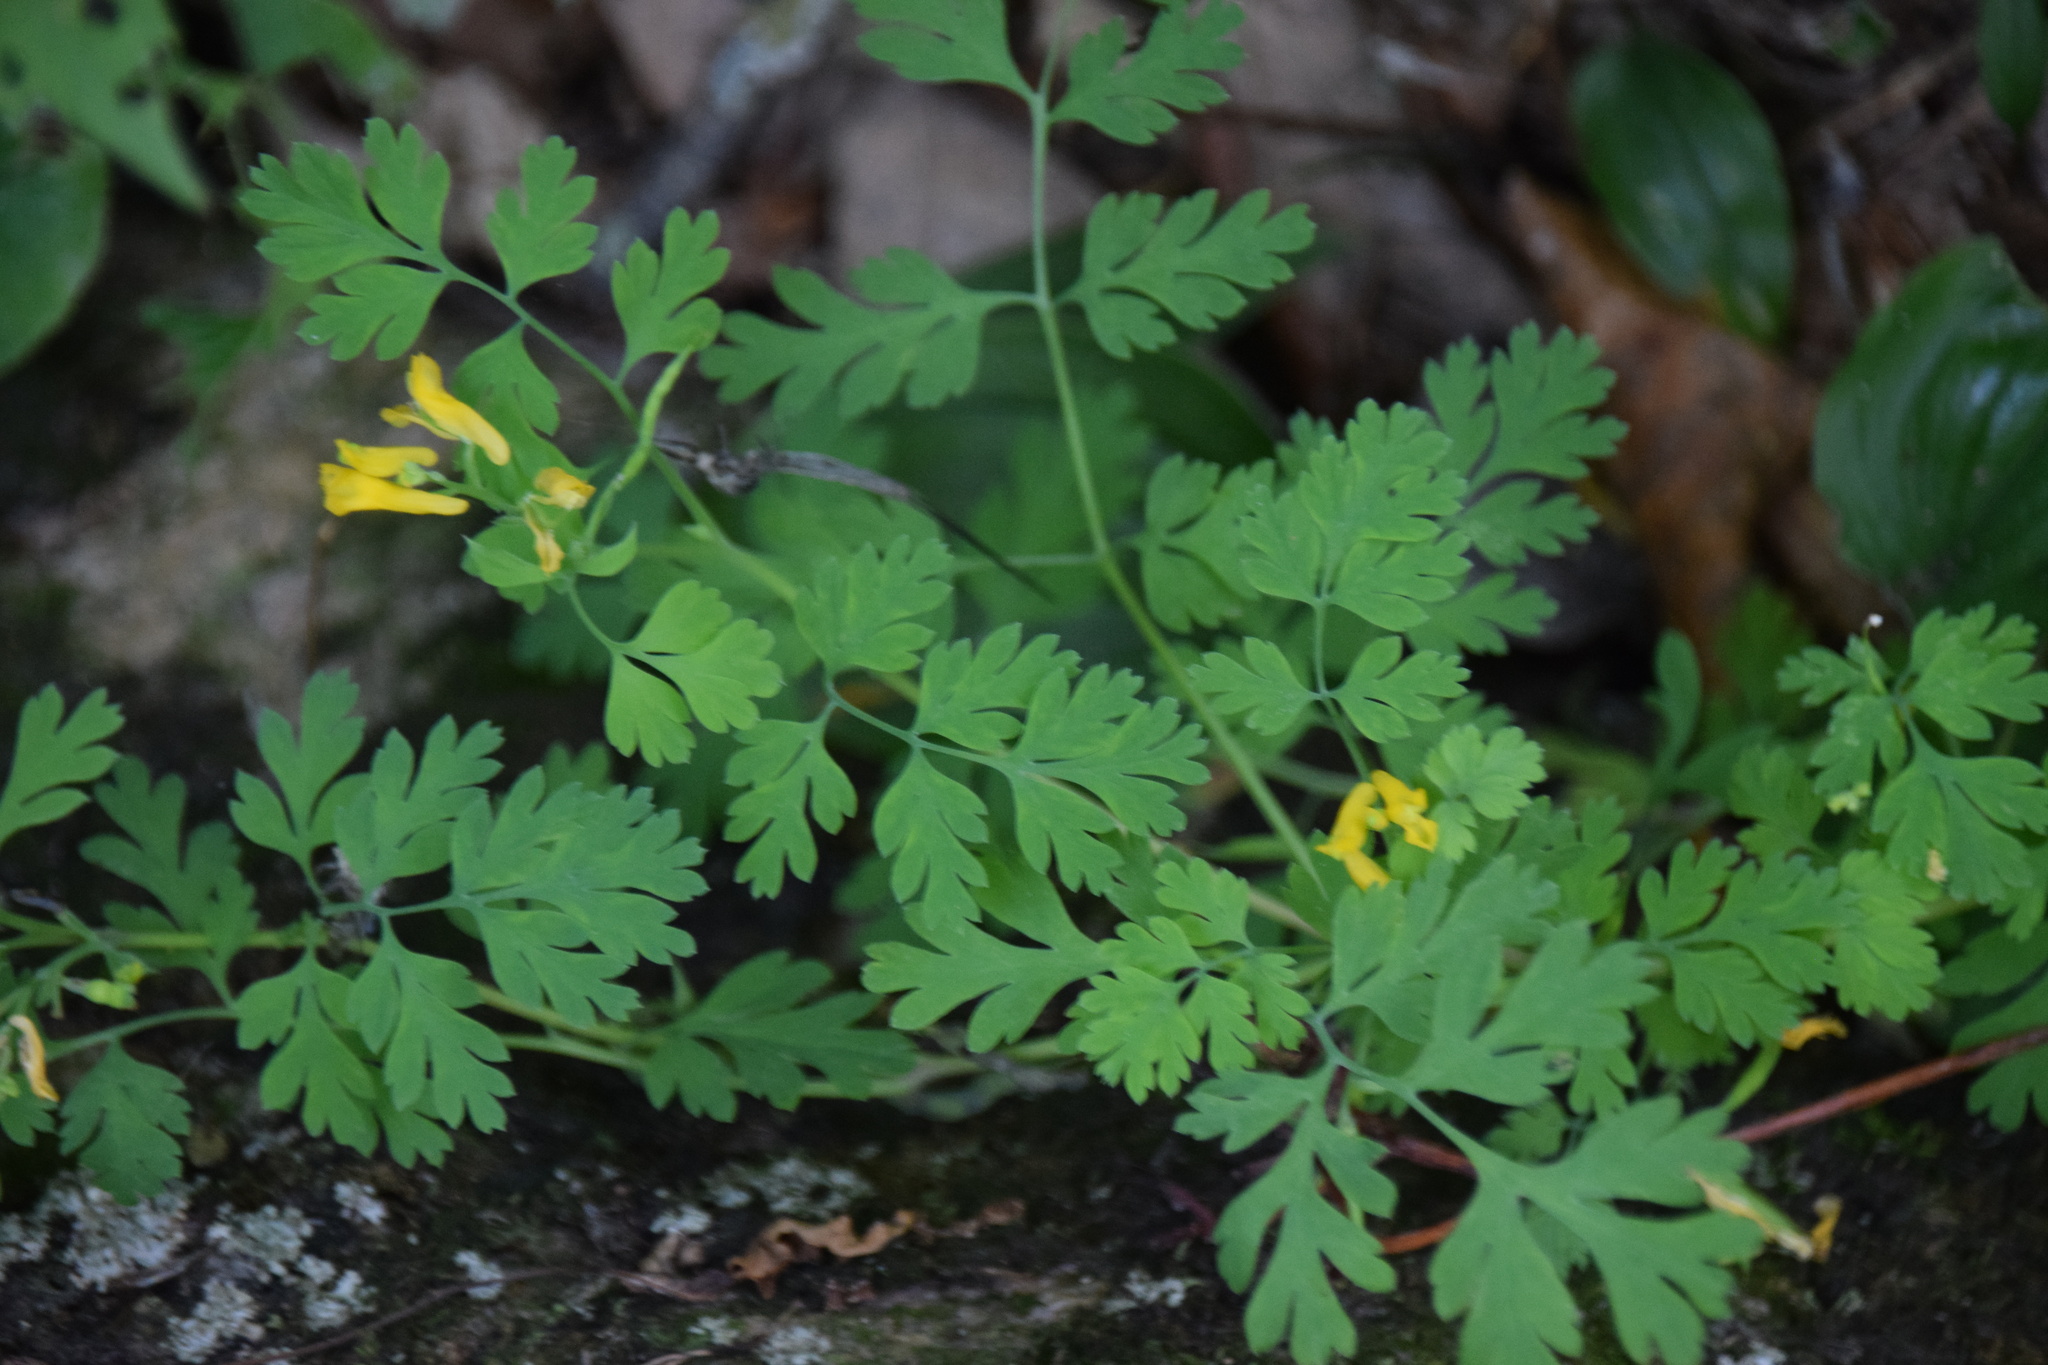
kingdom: Plantae
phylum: Tracheophyta
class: Magnoliopsida
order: Ranunculales
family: Papaveraceae
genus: Corydalis
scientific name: Corydalis aurea
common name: Golden corydalis
